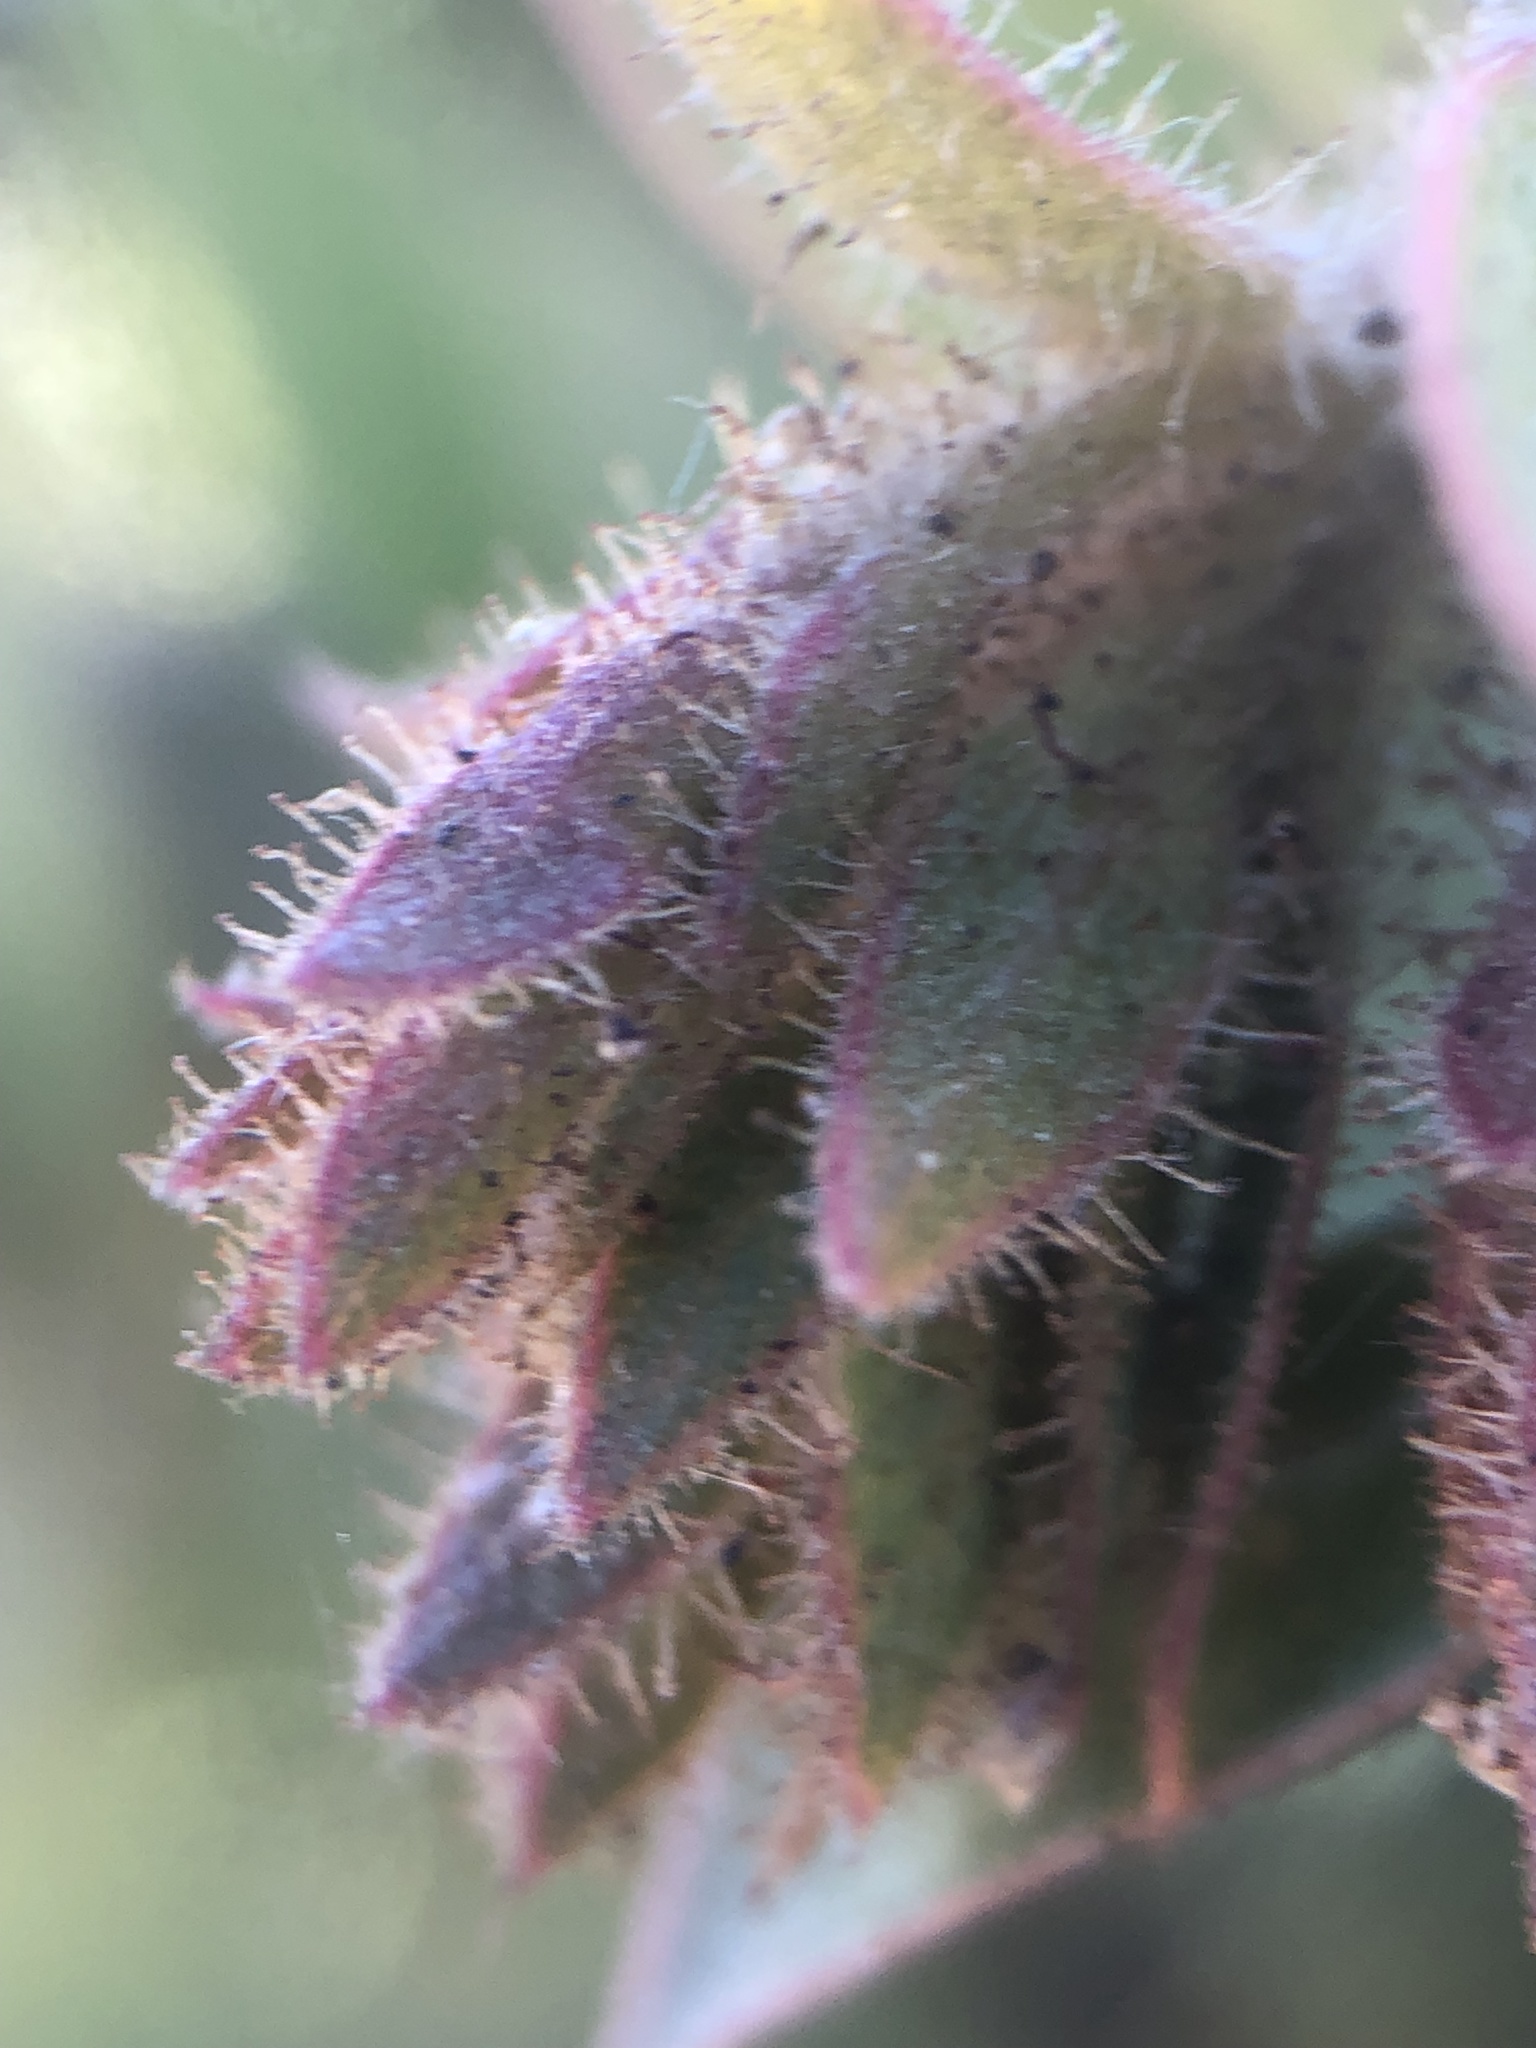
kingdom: Plantae
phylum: Tracheophyta
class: Magnoliopsida
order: Ericales
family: Ericaceae
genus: Arctostaphylos
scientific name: Arctostaphylos refugioensis
